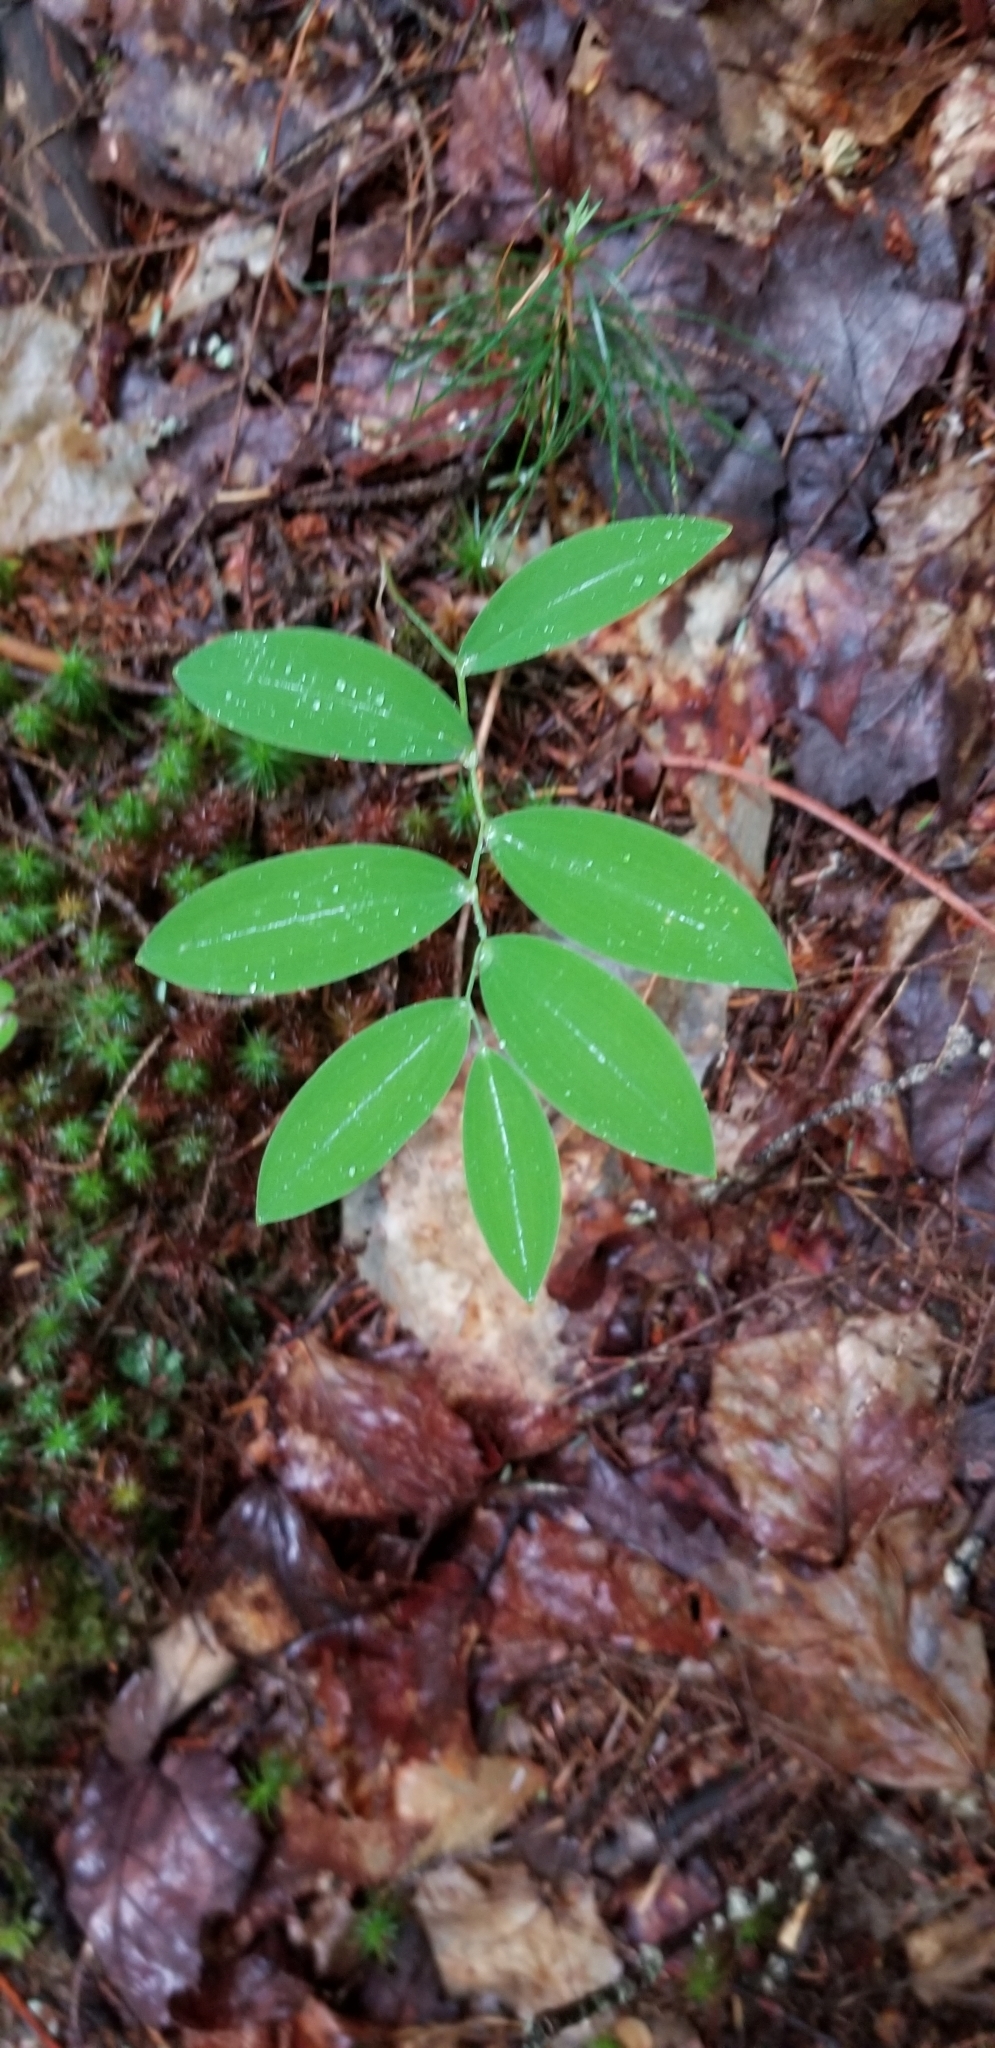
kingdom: Plantae
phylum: Tracheophyta
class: Liliopsida
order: Liliales
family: Colchicaceae
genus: Uvularia
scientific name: Uvularia sessilifolia
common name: Straw-lily
